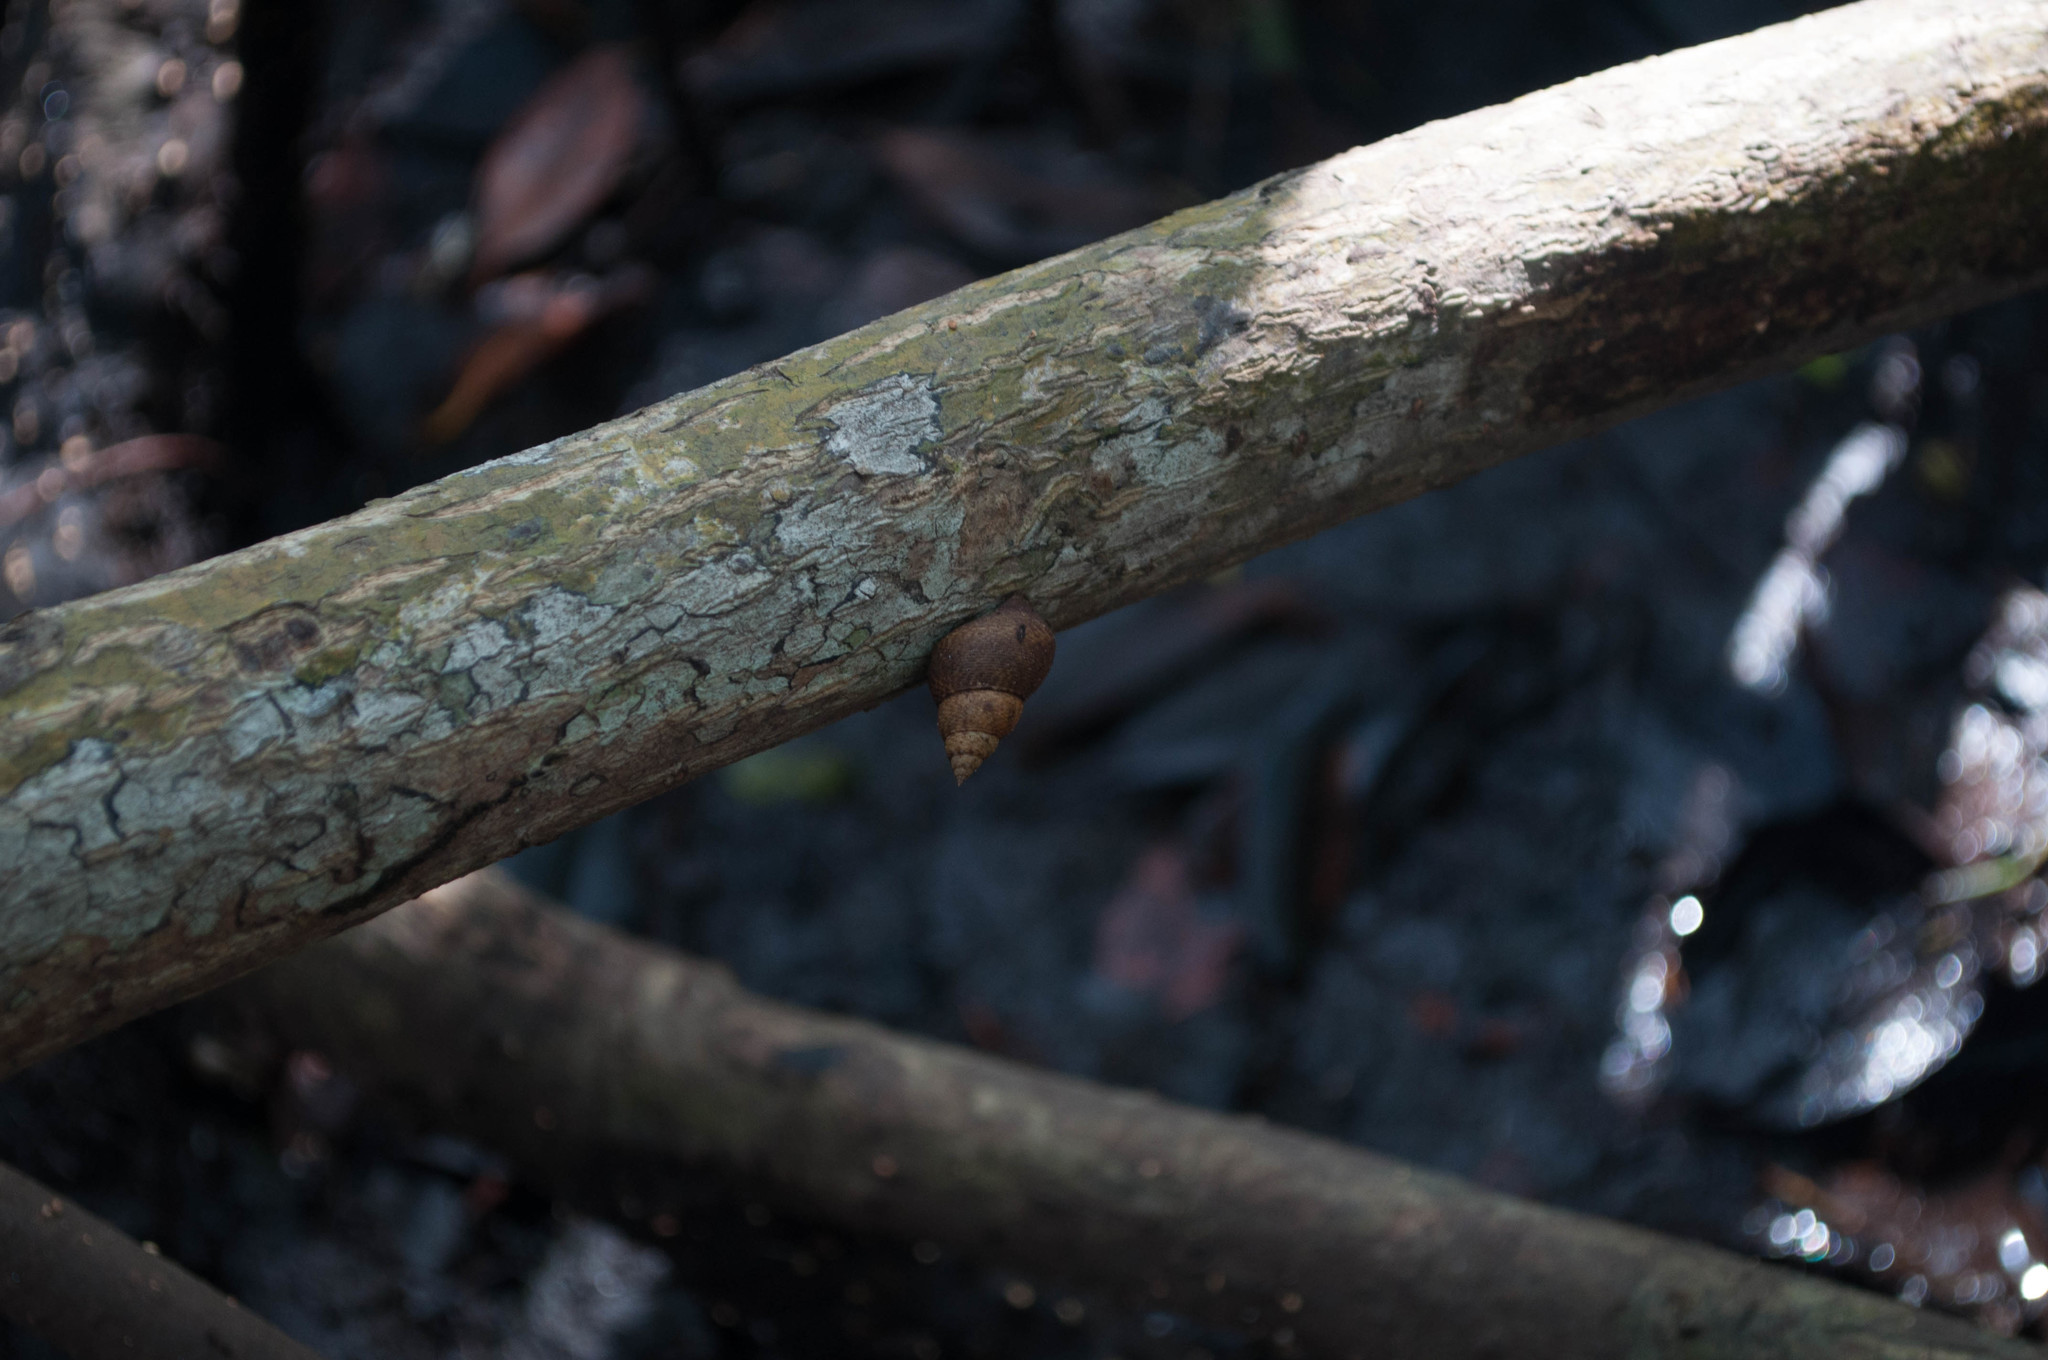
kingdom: Animalia
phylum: Mollusca
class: Gastropoda
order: Littorinimorpha
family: Littorinidae
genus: Littoraria
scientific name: Littoraria angulifera
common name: Mangrove periwinkle
